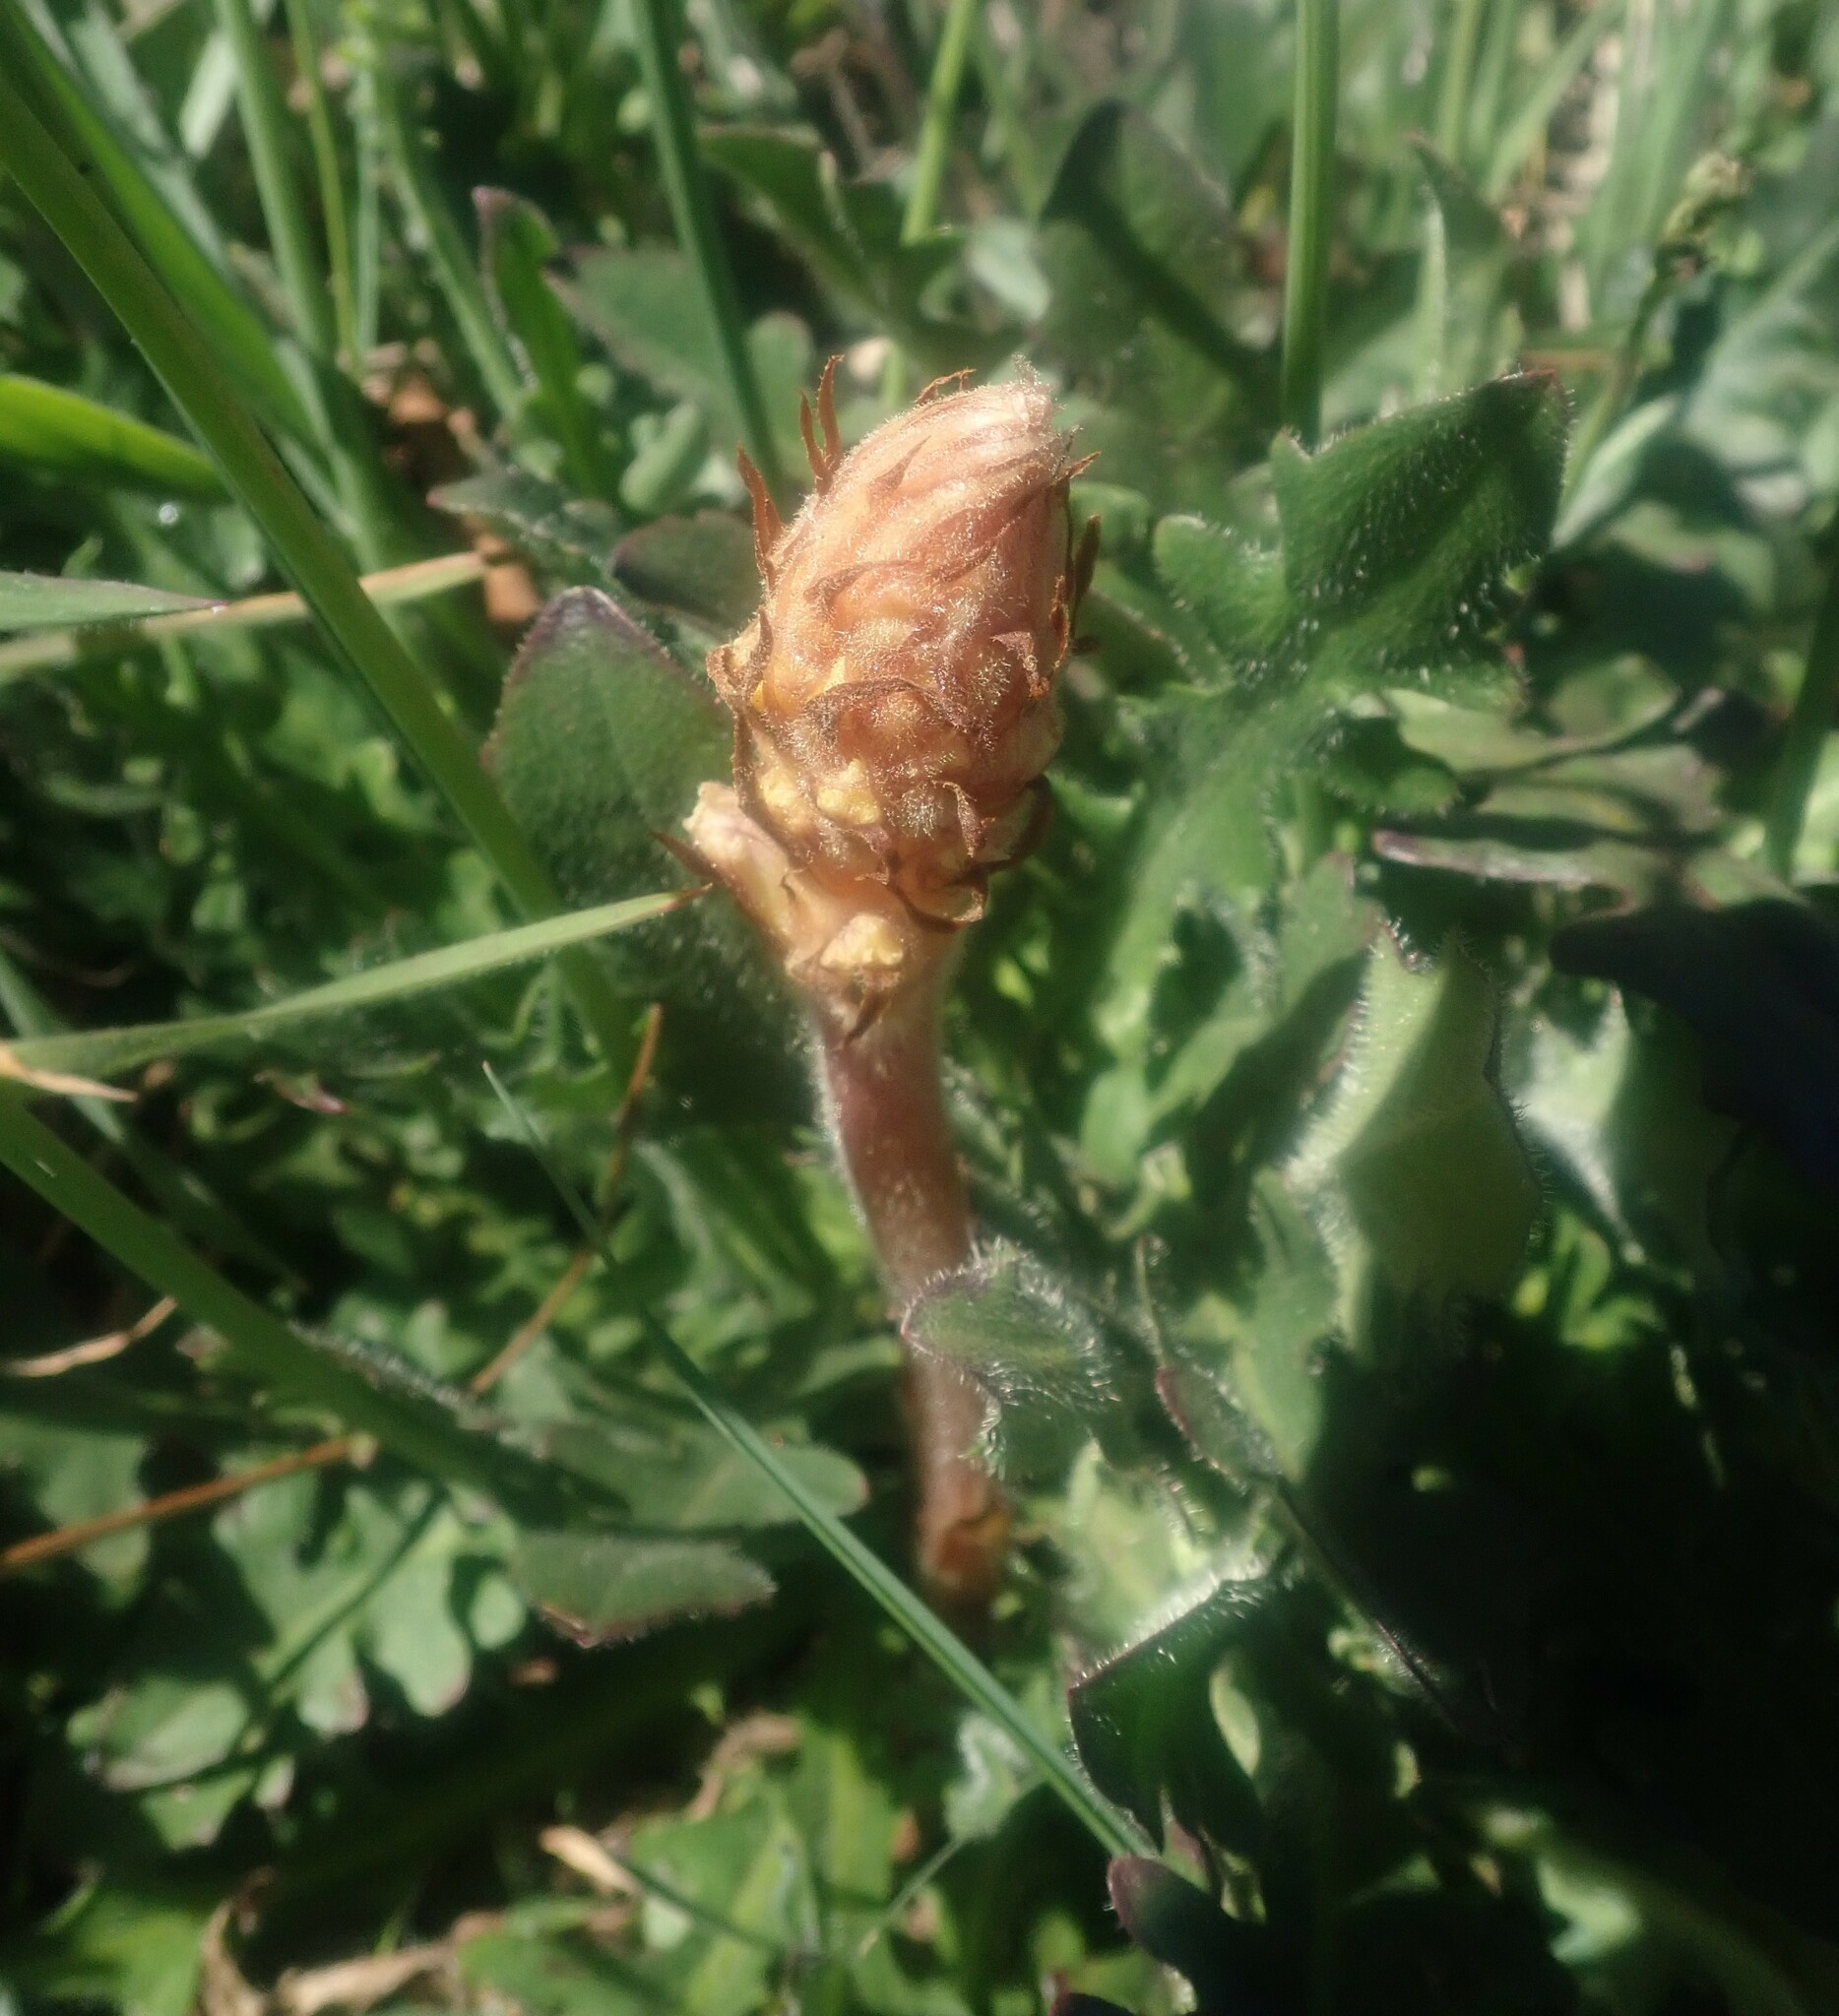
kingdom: Plantae
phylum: Tracheophyta
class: Magnoliopsida
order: Lamiales
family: Orobanchaceae
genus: Orobanche
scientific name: Orobanche minor
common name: Common broomrape
